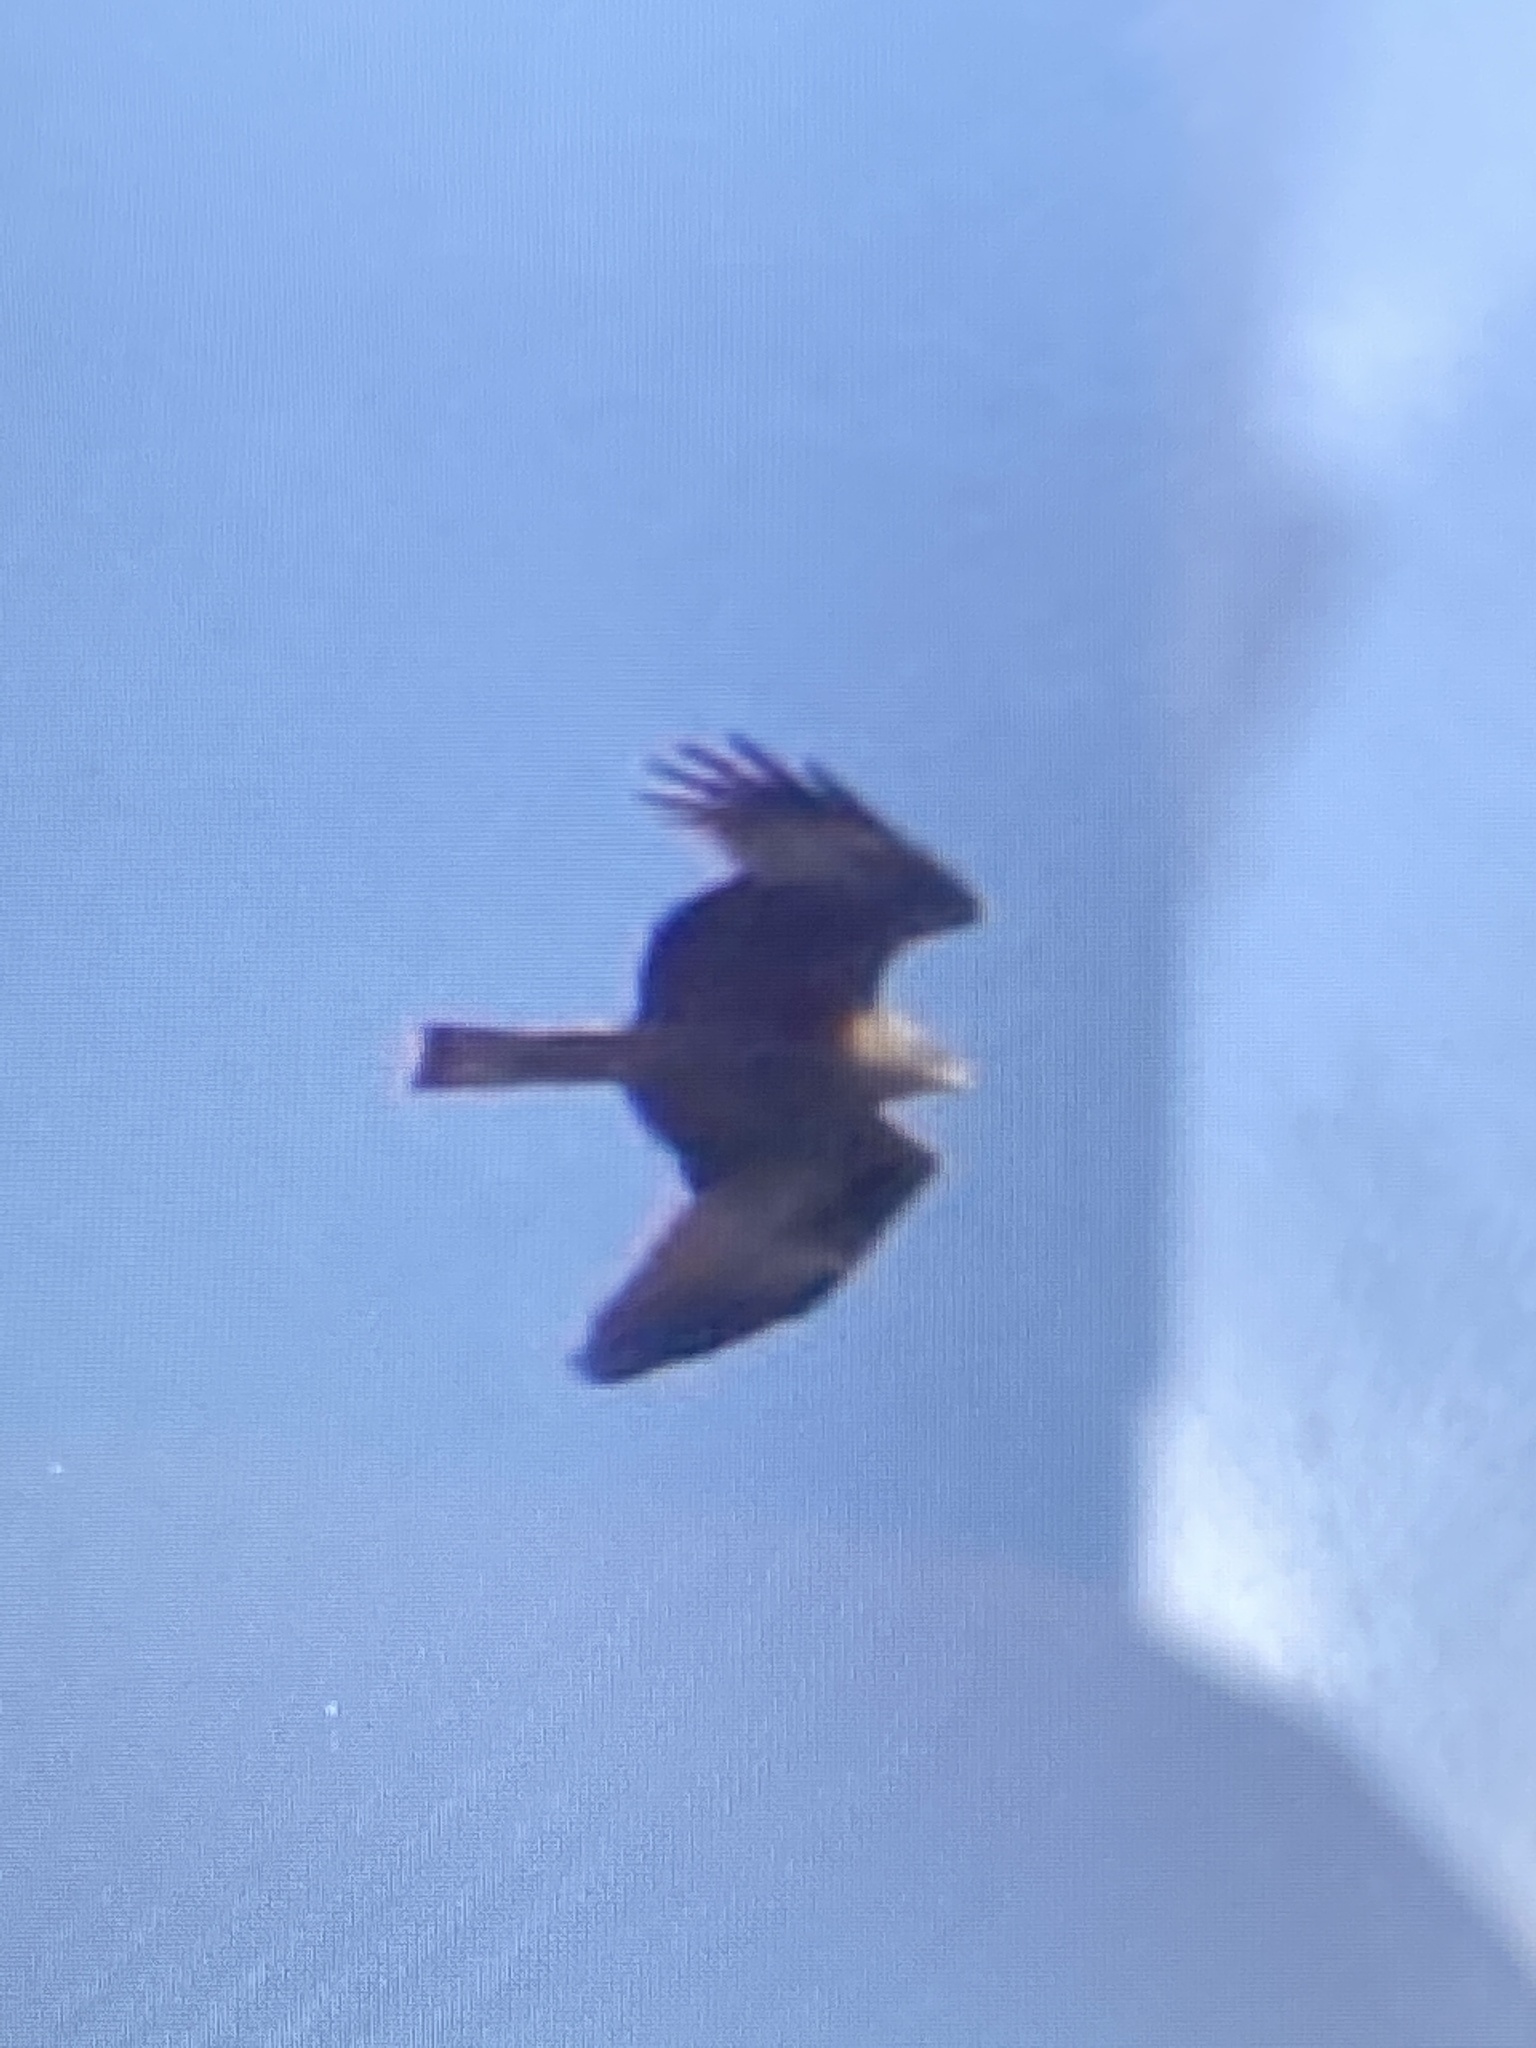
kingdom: Animalia
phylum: Chordata
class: Aves
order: Accipitriformes
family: Accipitridae
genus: Milvus
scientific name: Milvus migrans
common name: Black kite
